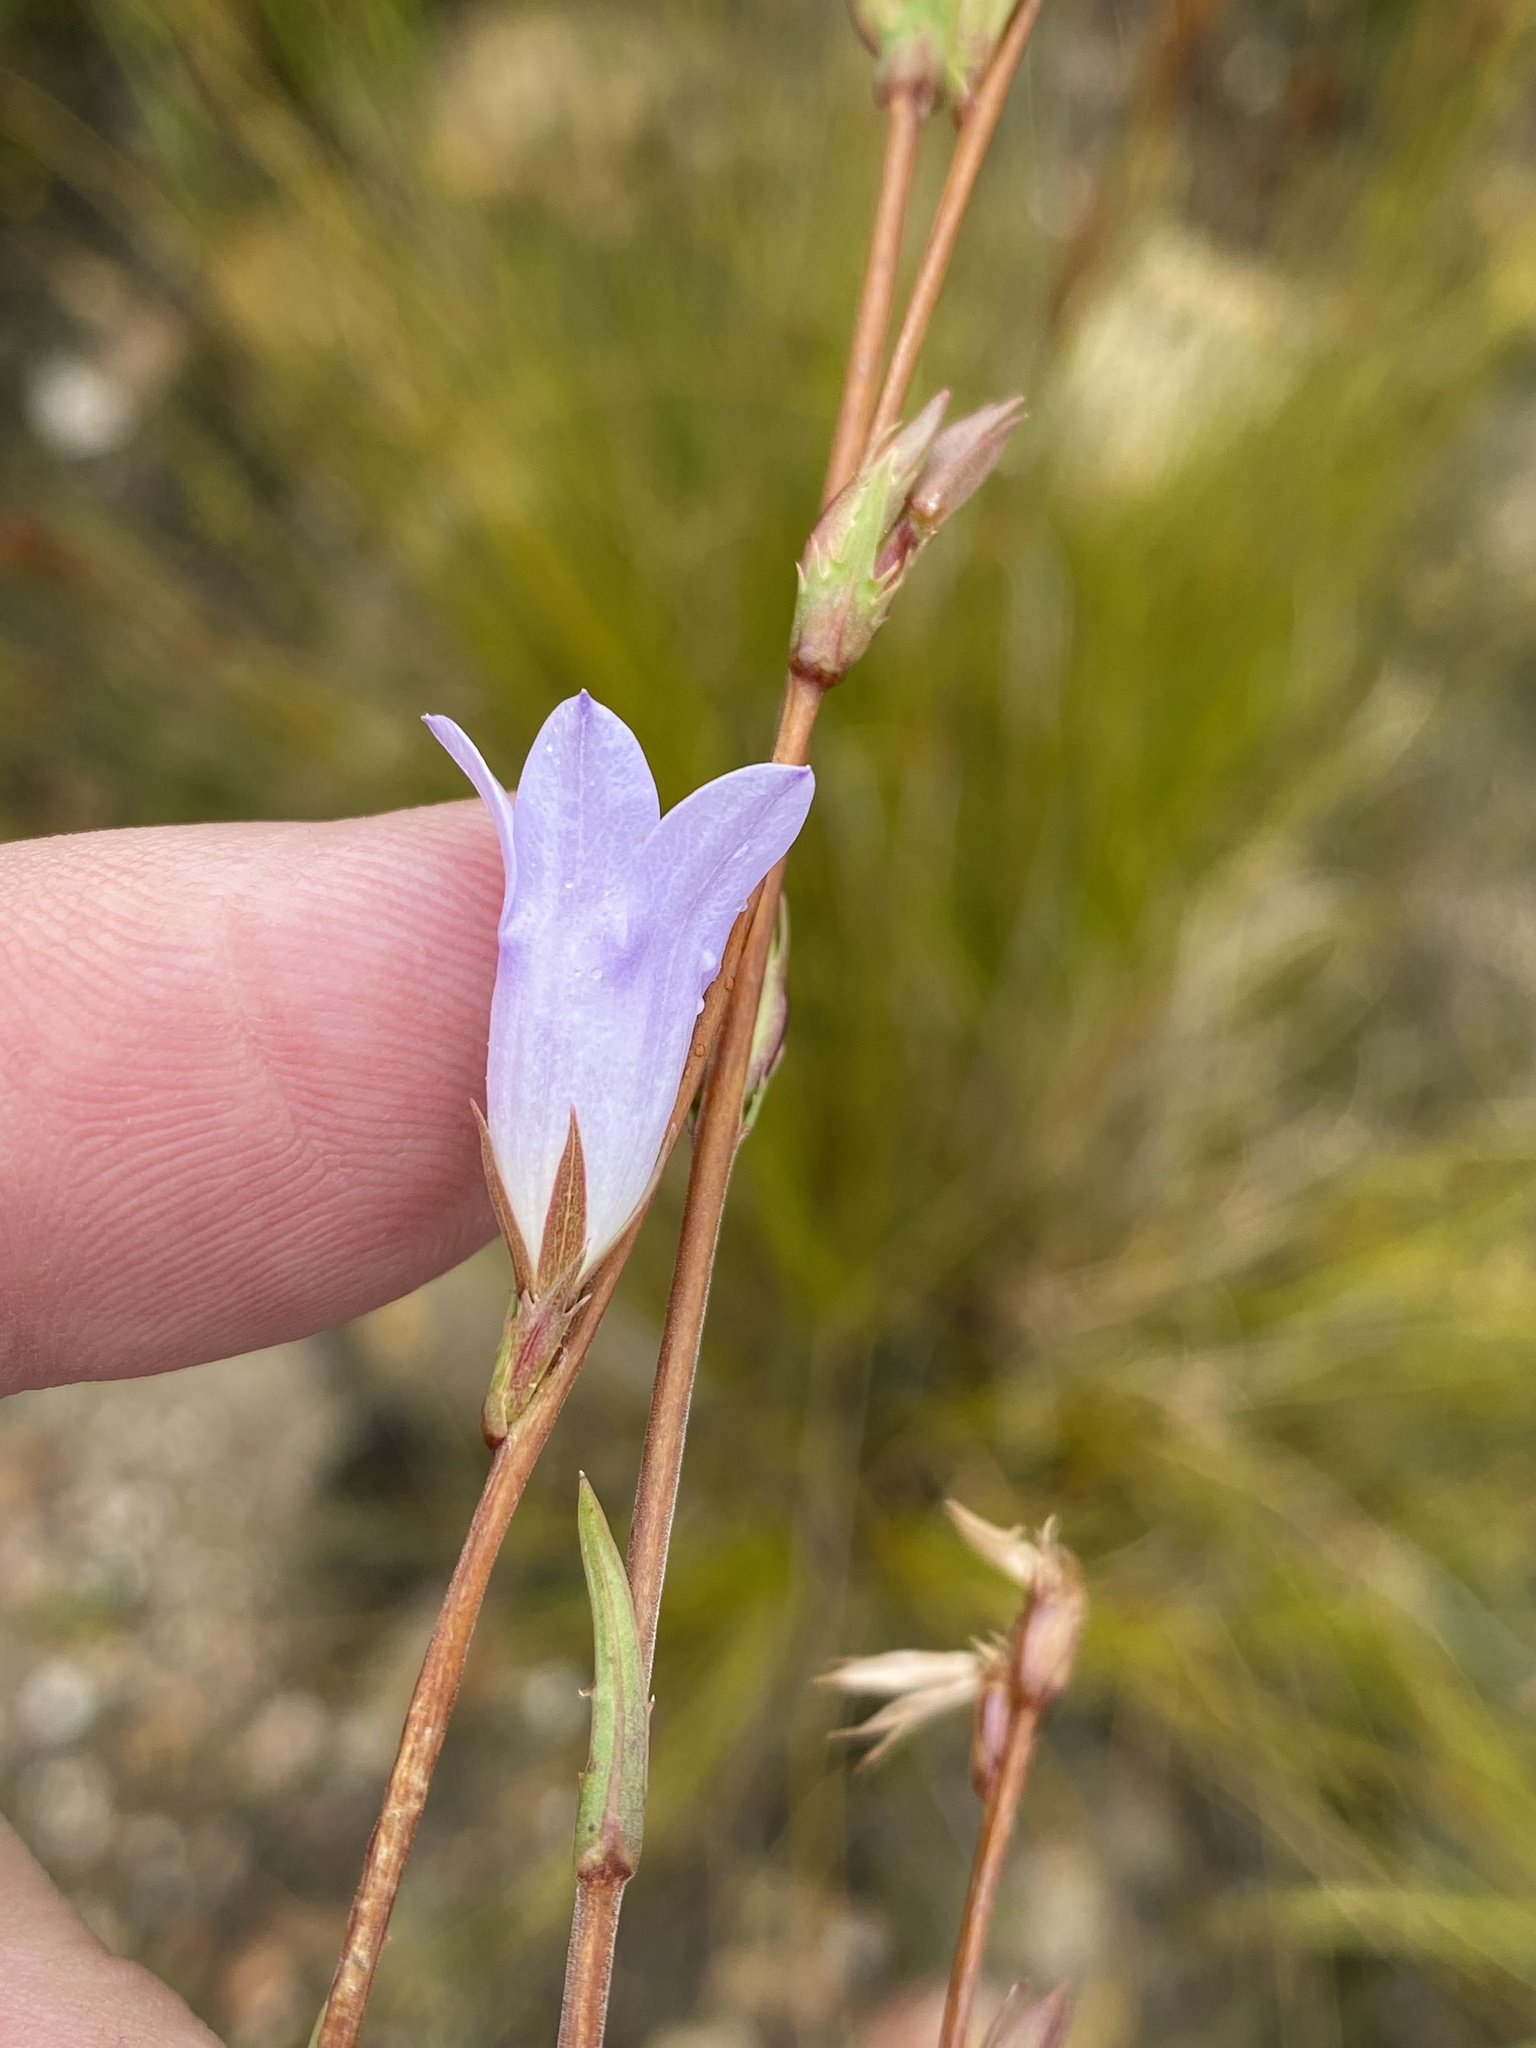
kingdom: Plantae
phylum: Tracheophyta
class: Magnoliopsida
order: Asterales
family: Campanulaceae
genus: Prismatocarpus
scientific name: Prismatocarpus candolleanus
